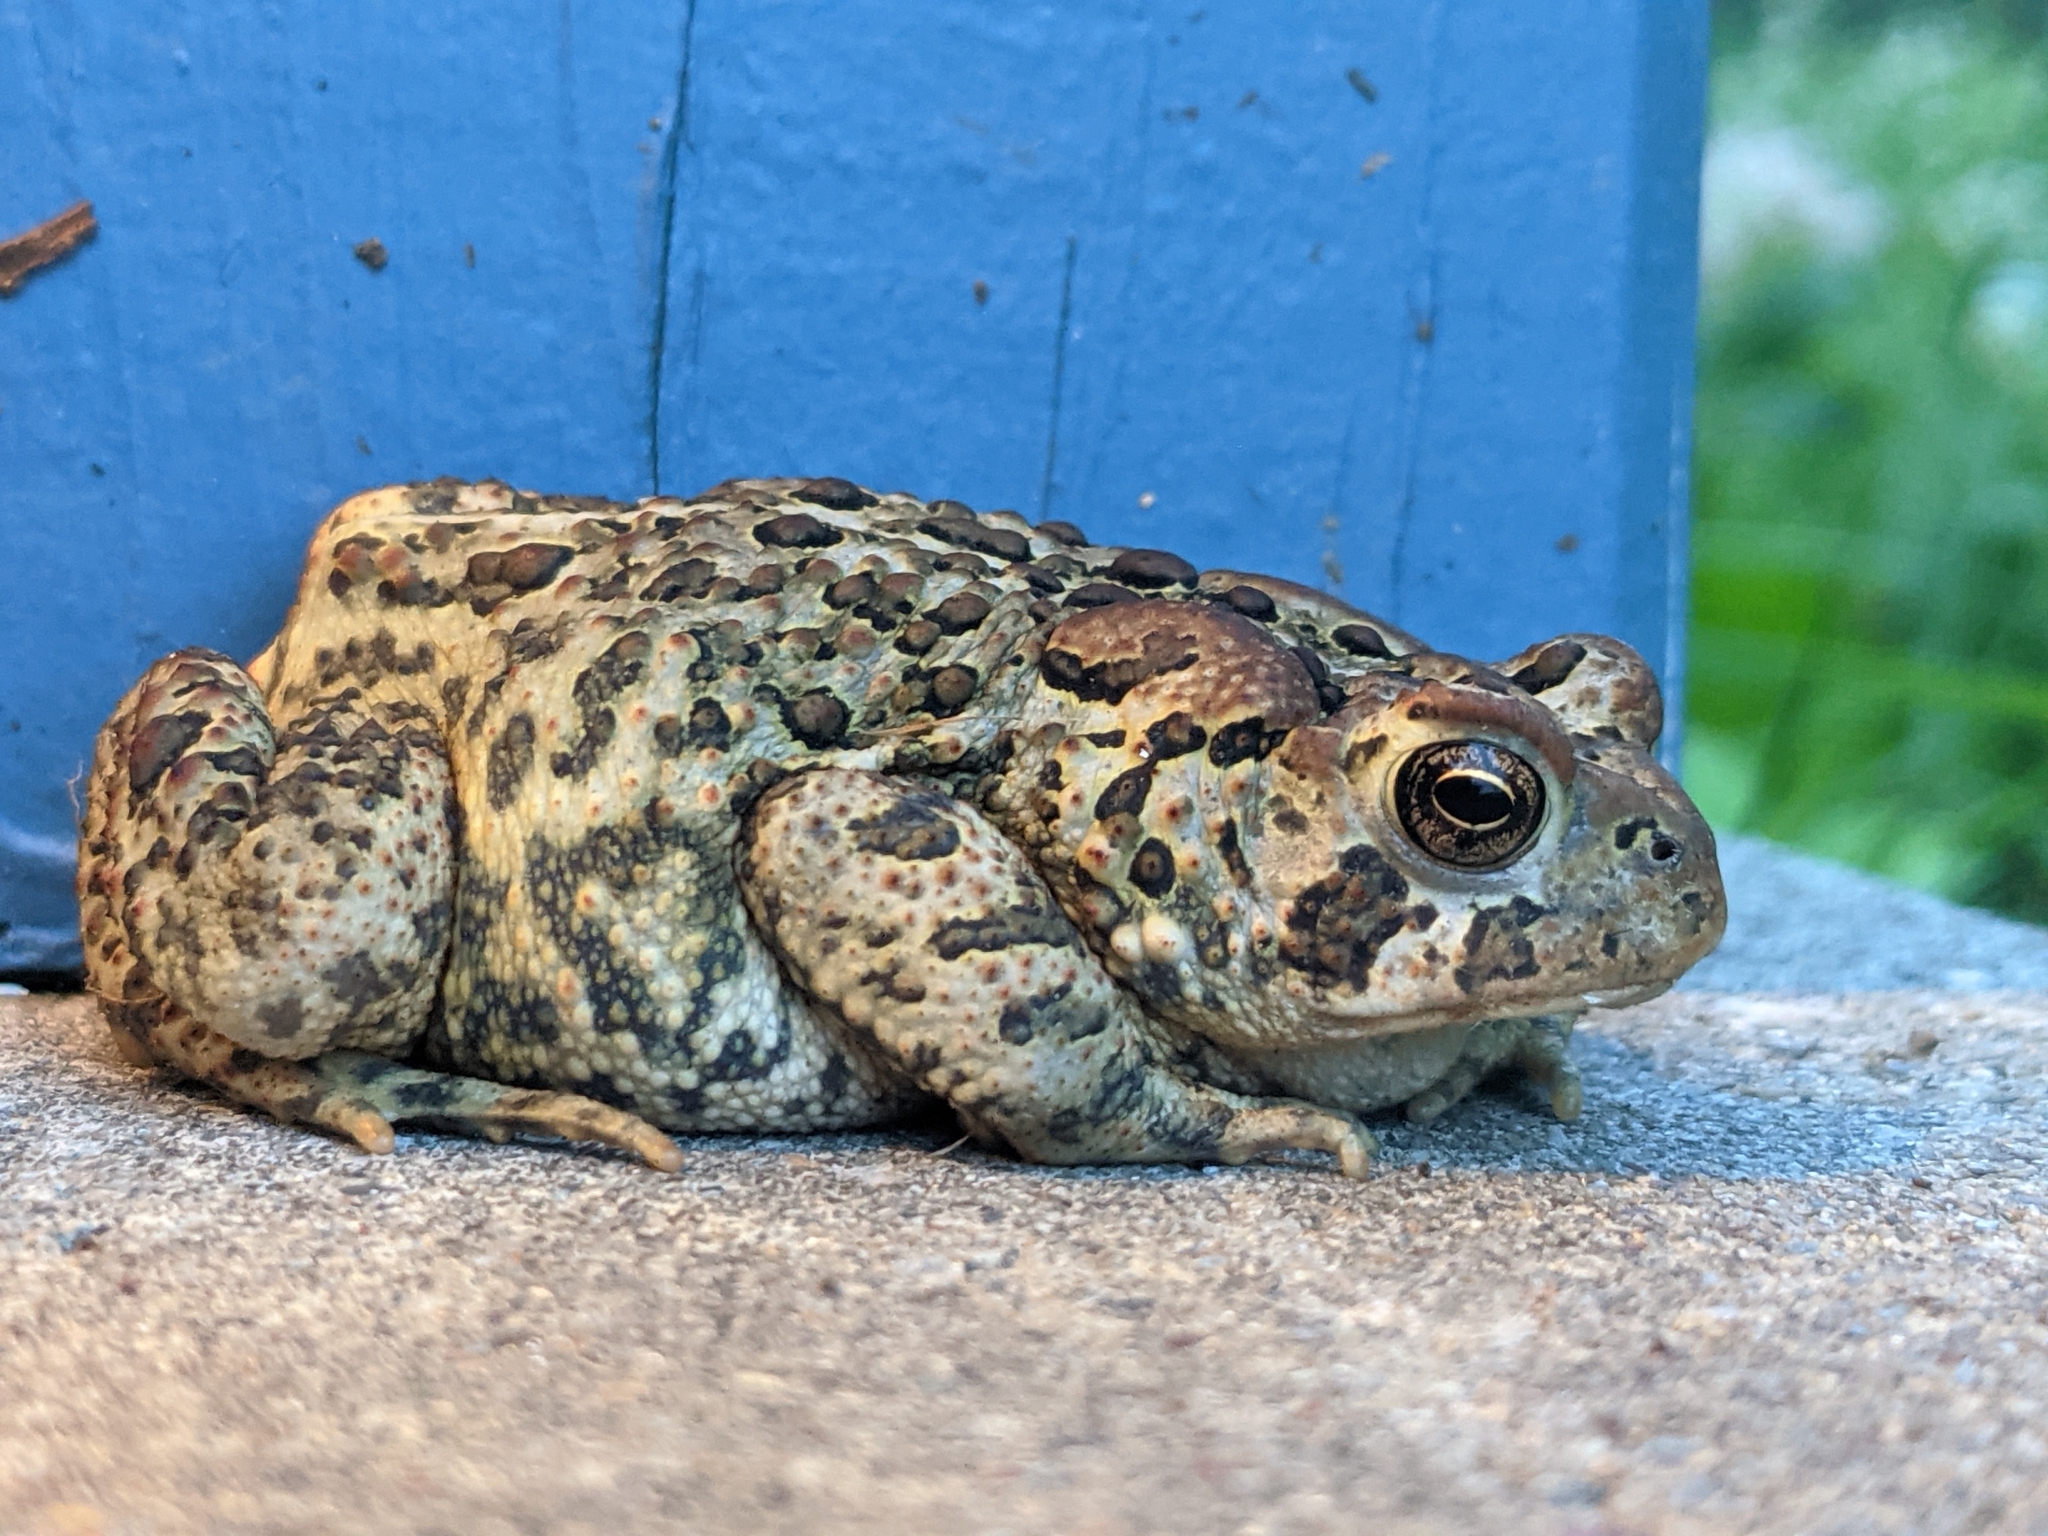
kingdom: Animalia
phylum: Chordata
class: Amphibia
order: Anura
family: Bufonidae
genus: Anaxyrus
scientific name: Anaxyrus americanus
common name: American toad
